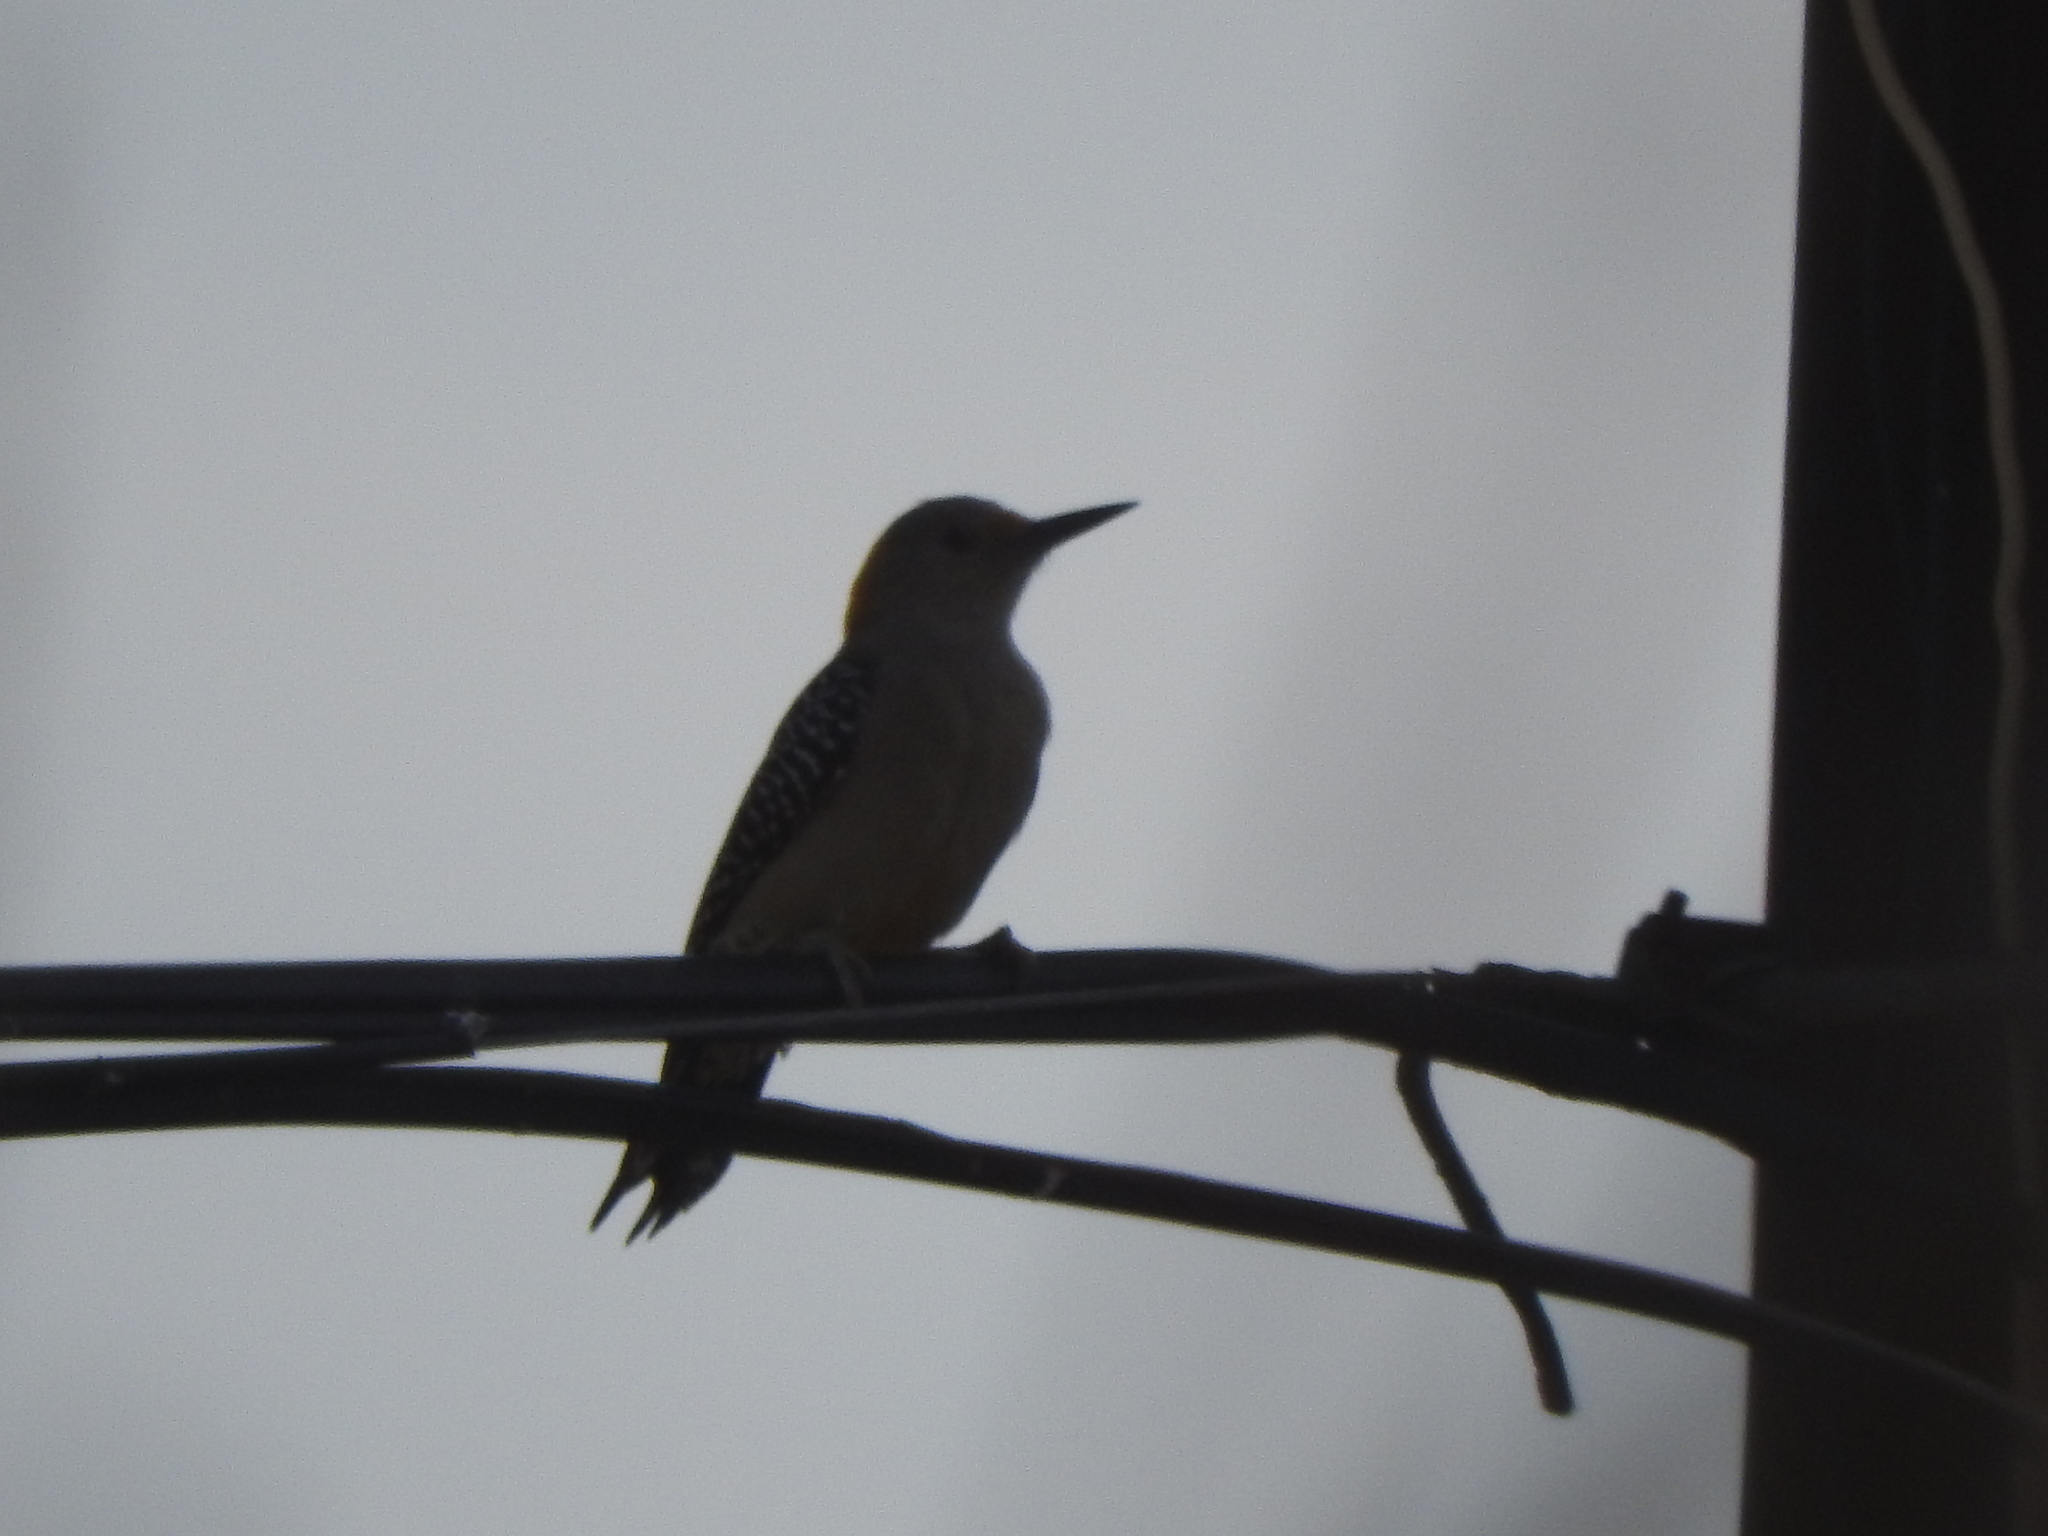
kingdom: Animalia
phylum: Chordata
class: Aves
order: Piciformes
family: Picidae
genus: Melanerpes
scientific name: Melanerpes aurifrons
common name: Golden-fronted woodpecker
